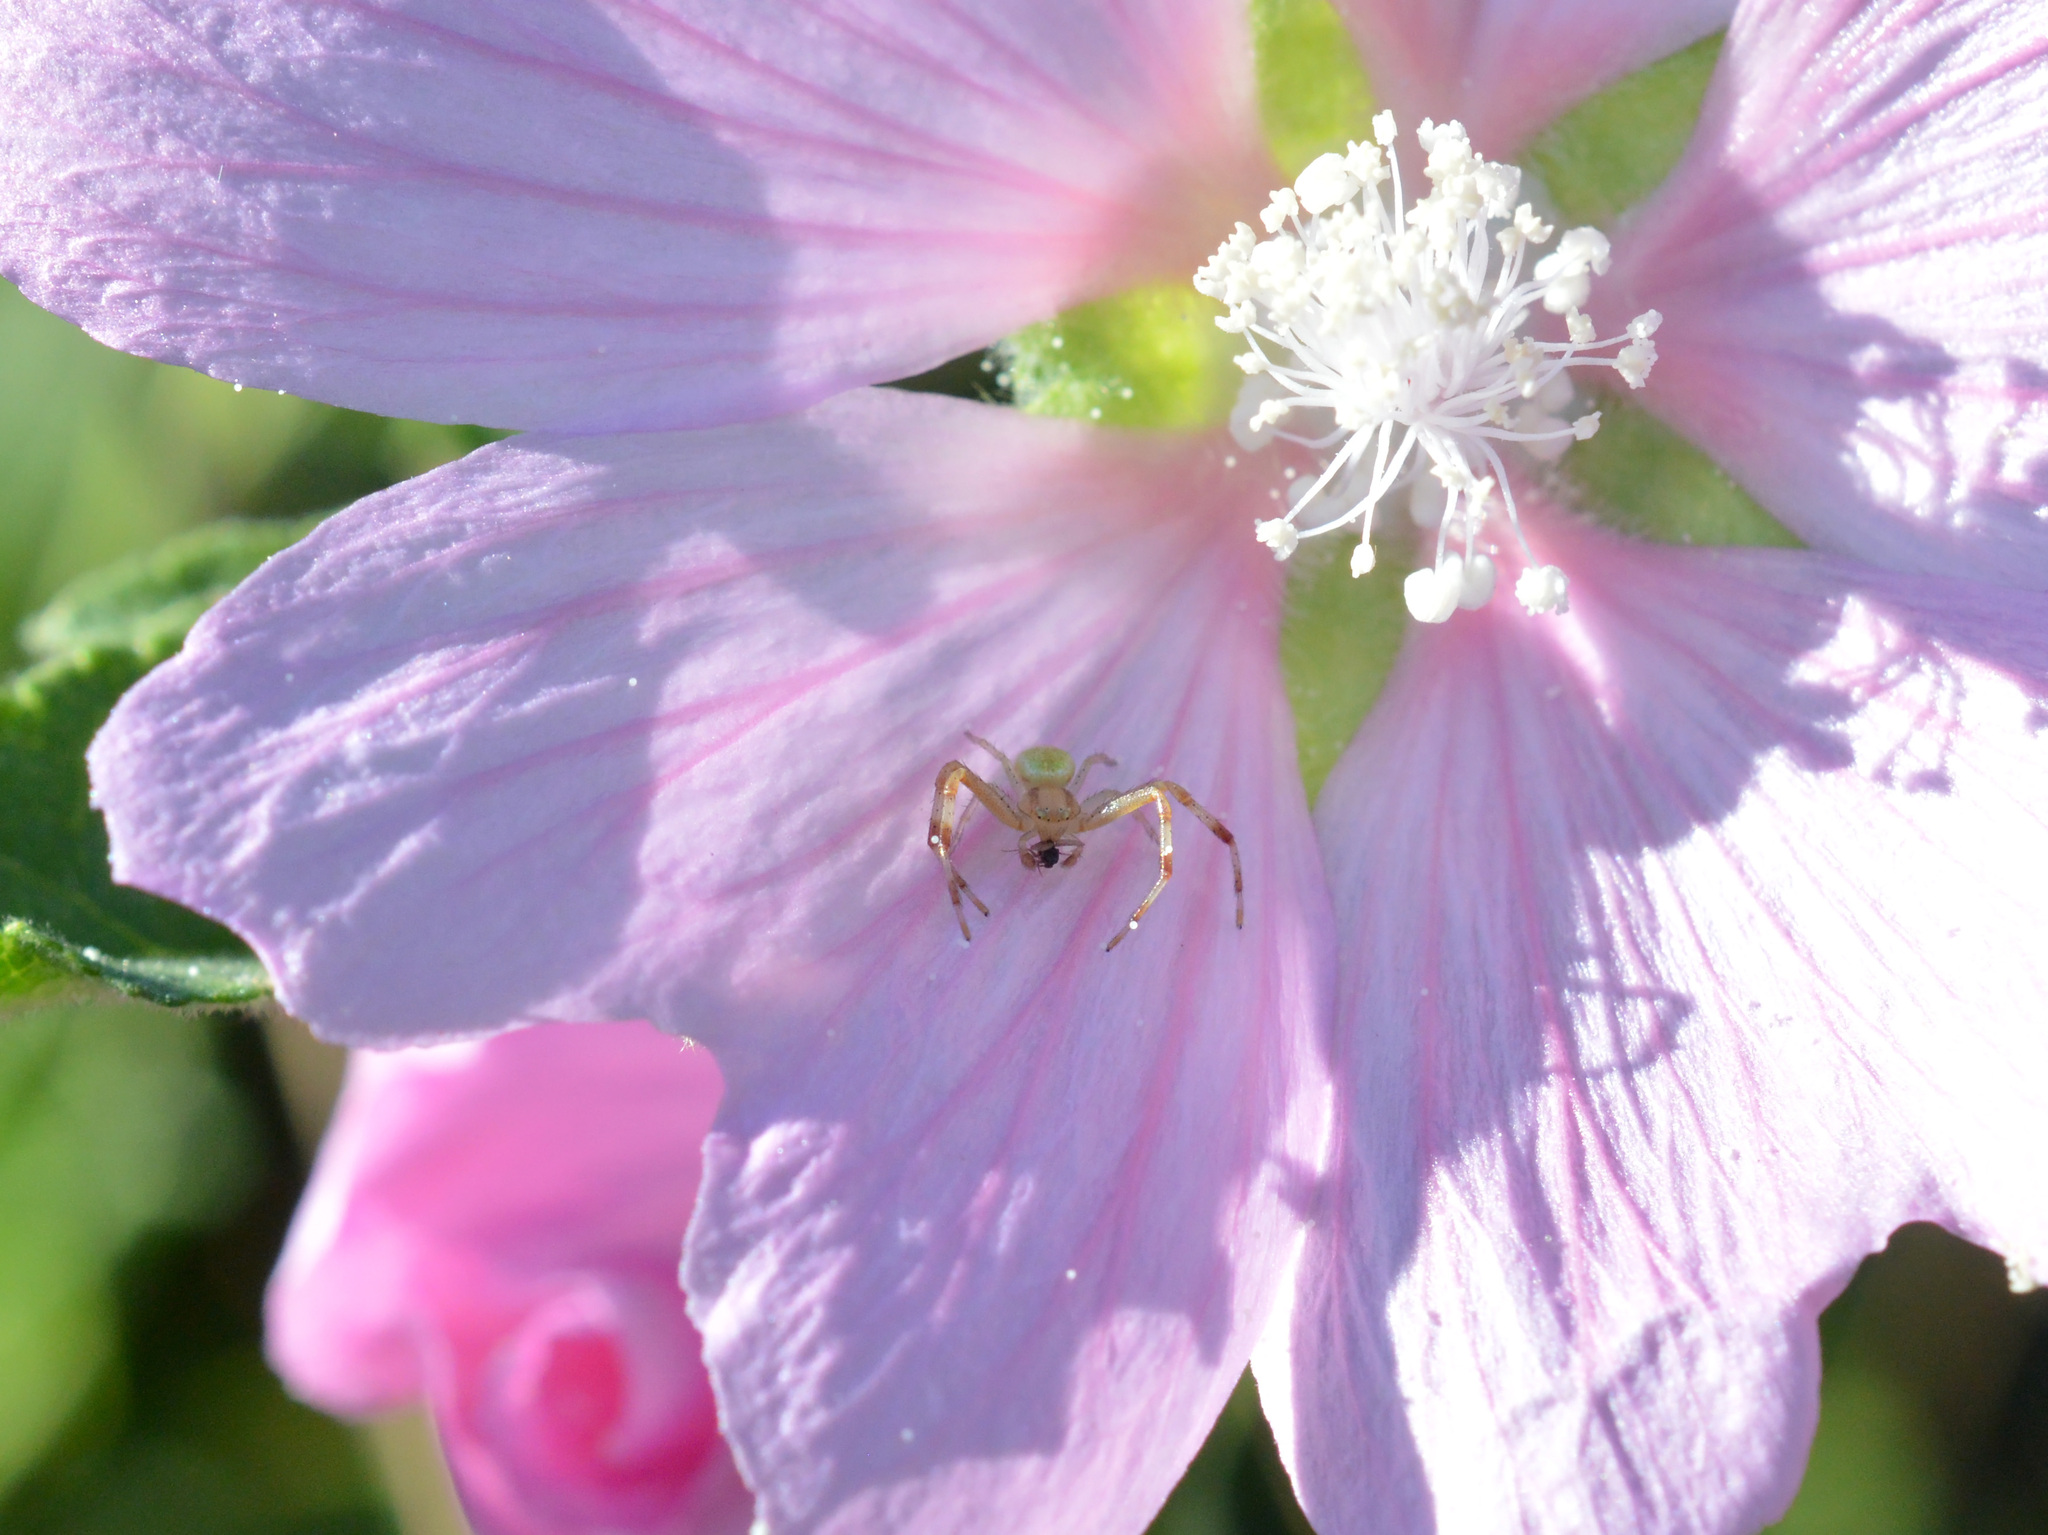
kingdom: Animalia
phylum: Arthropoda
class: Arachnida
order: Araneae
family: Thomisidae
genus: Ebrechtella
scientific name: Ebrechtella tricuspidata
